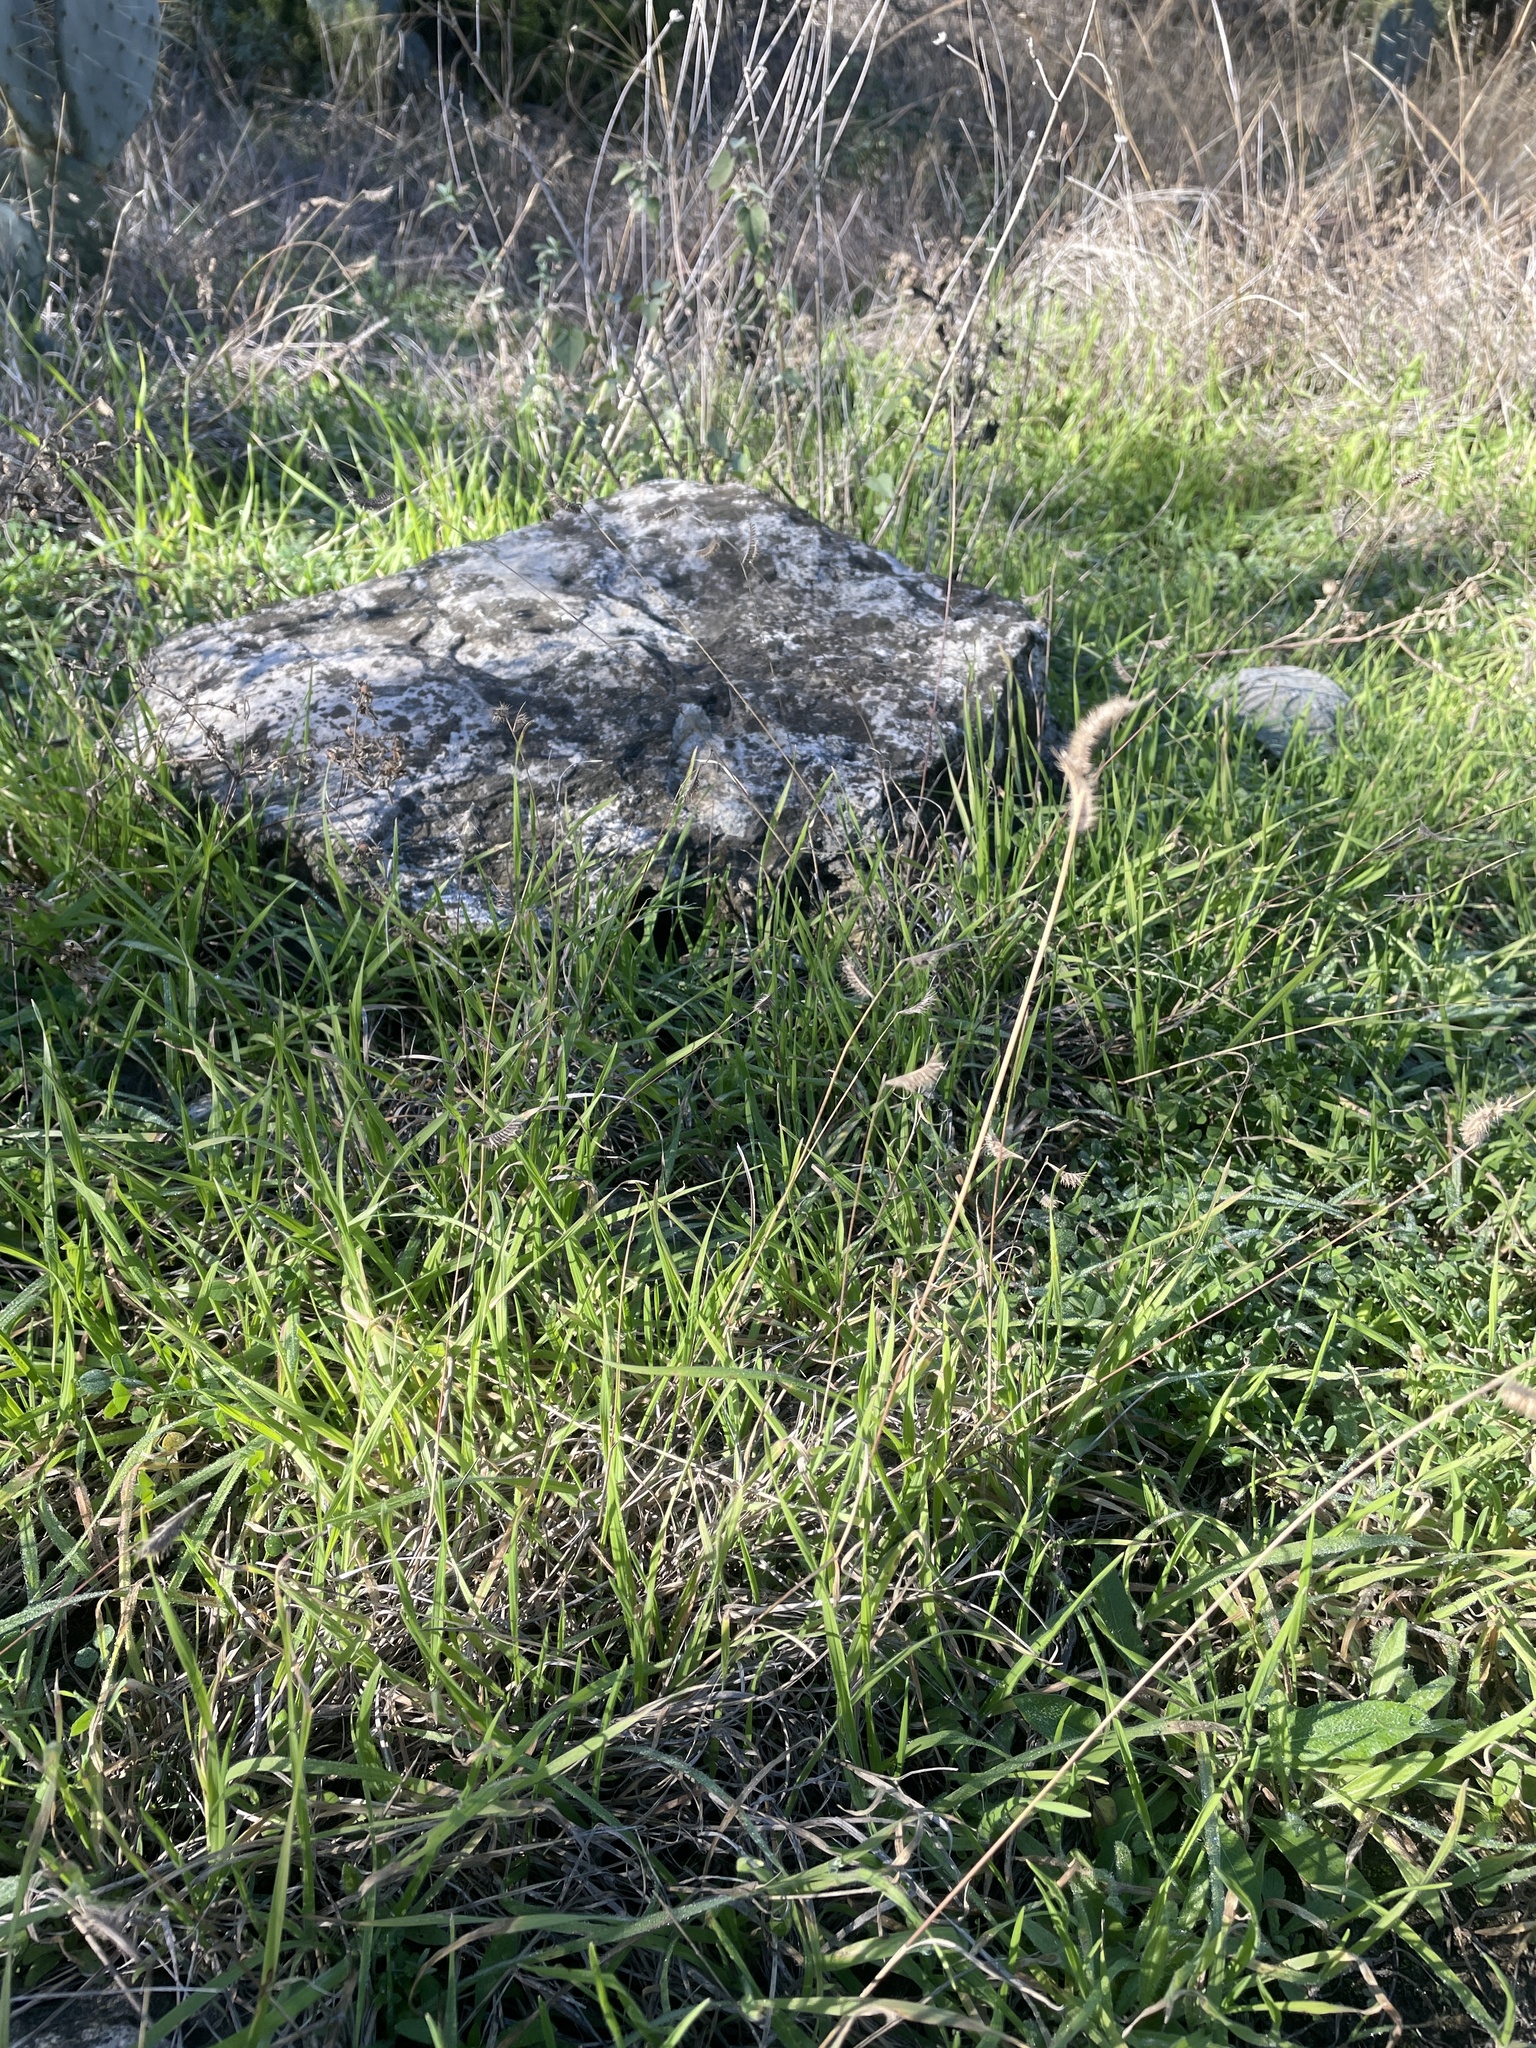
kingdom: Plantae
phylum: Tracheophyta
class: Liliopsida
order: Poales
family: Poaceae
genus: Bouteloua
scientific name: Bouteloua hirsuta
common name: Hairy grama
